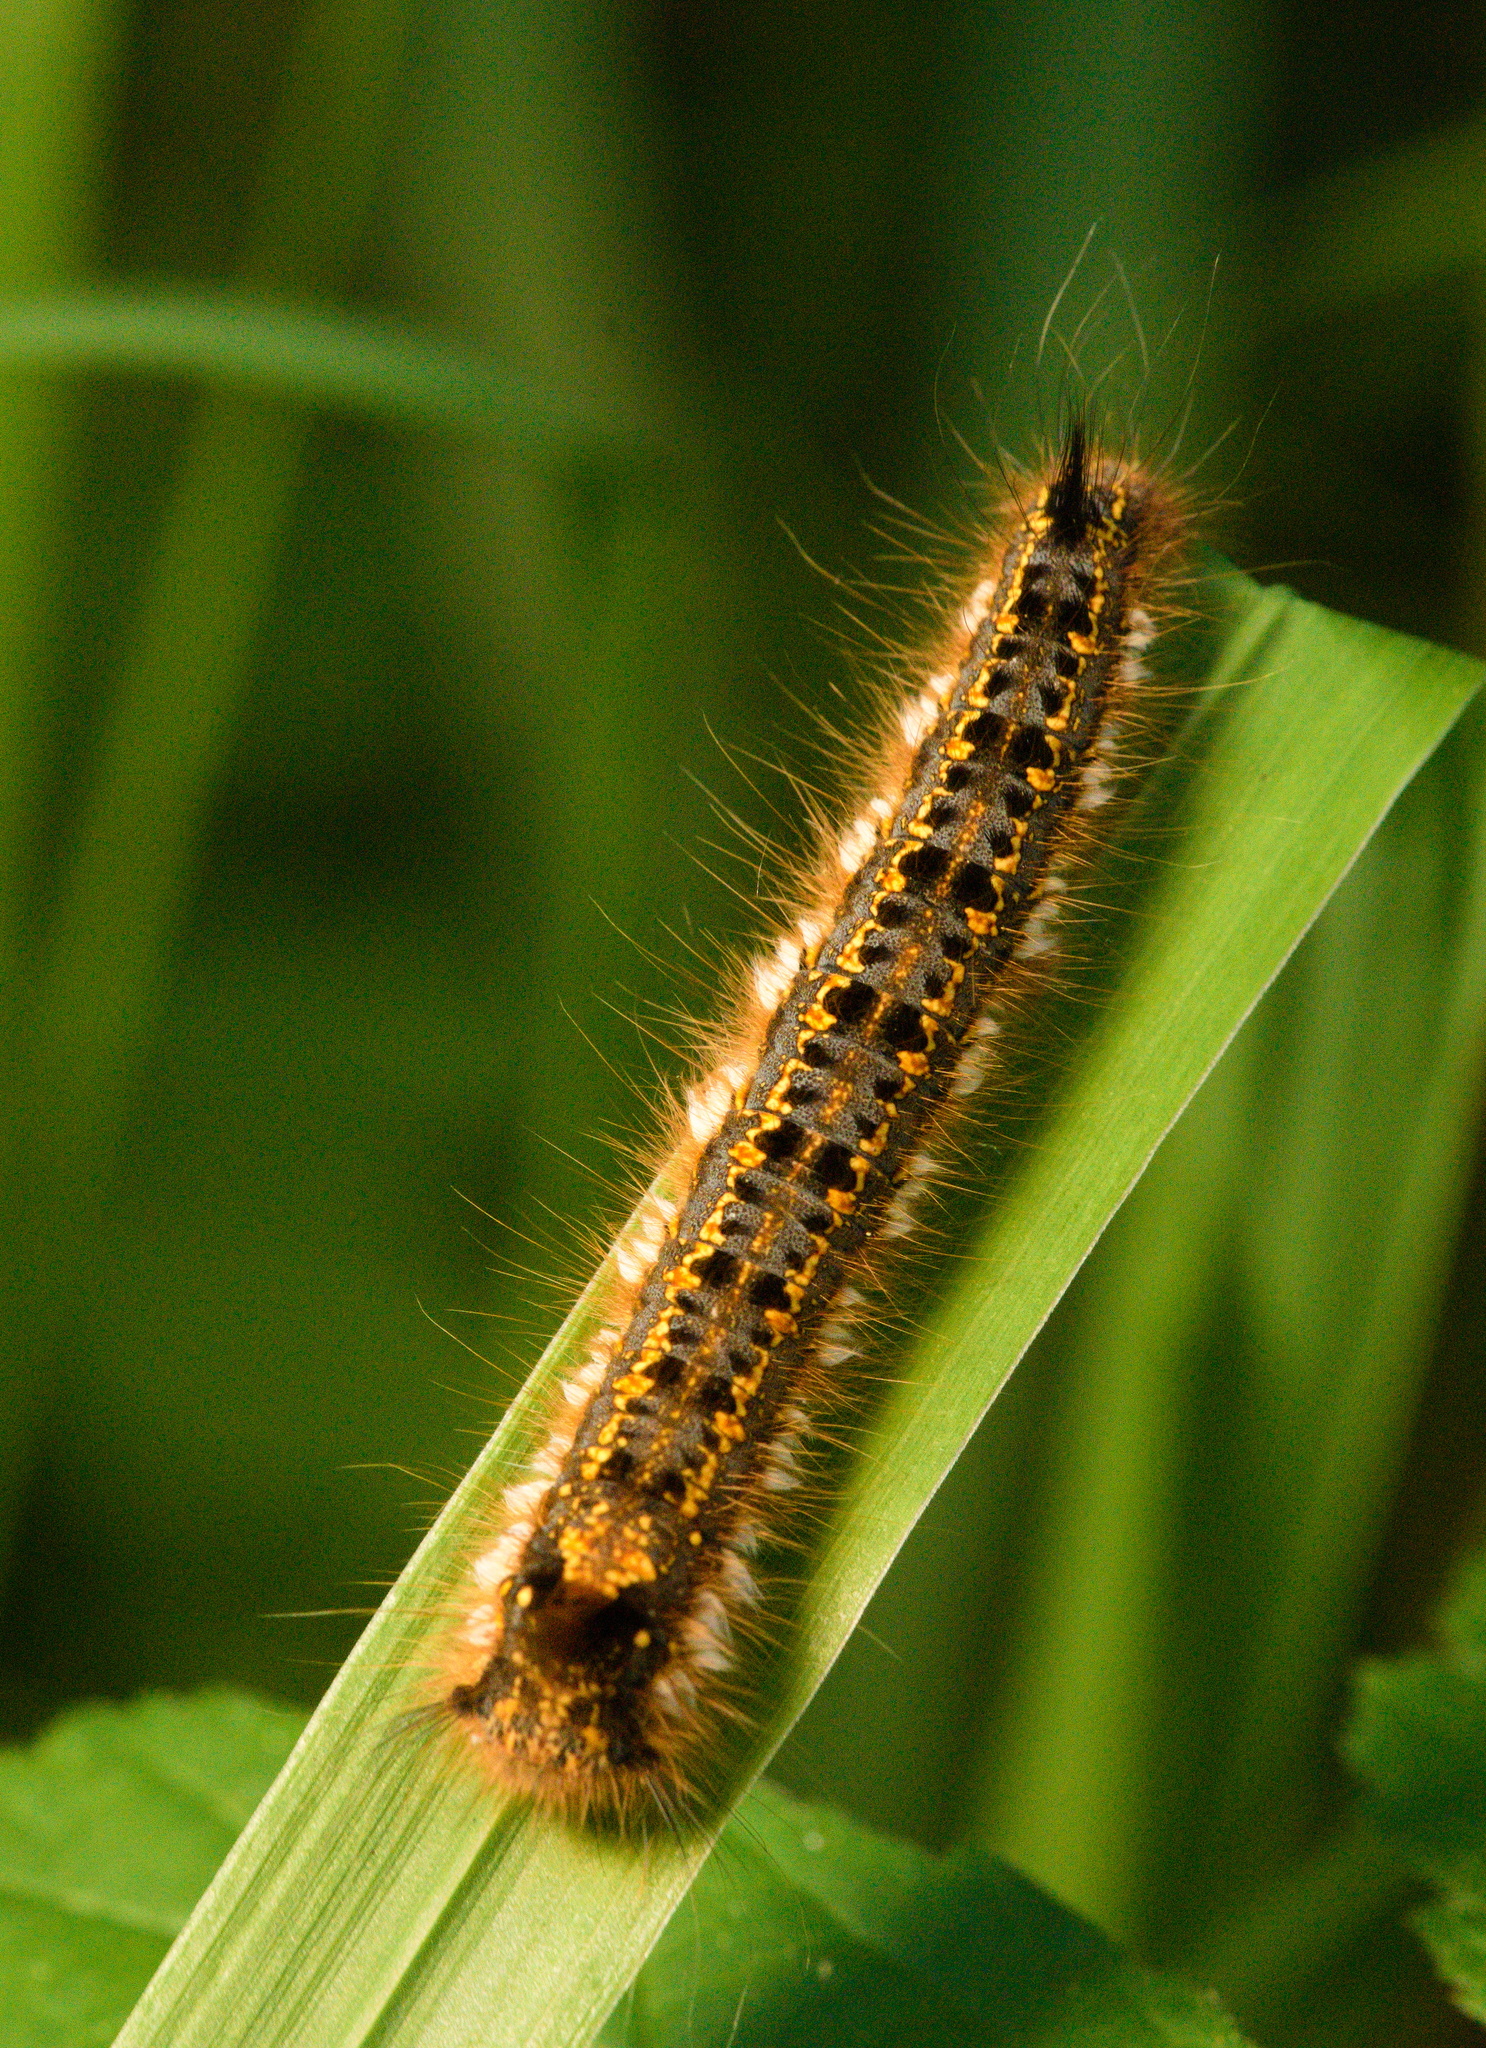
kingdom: Animalia
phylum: Arthropoda
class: Insecta
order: Lepidoptera
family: Lasiocampidae
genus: Euthrix
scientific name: Euthrix potatoria
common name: Drinker
